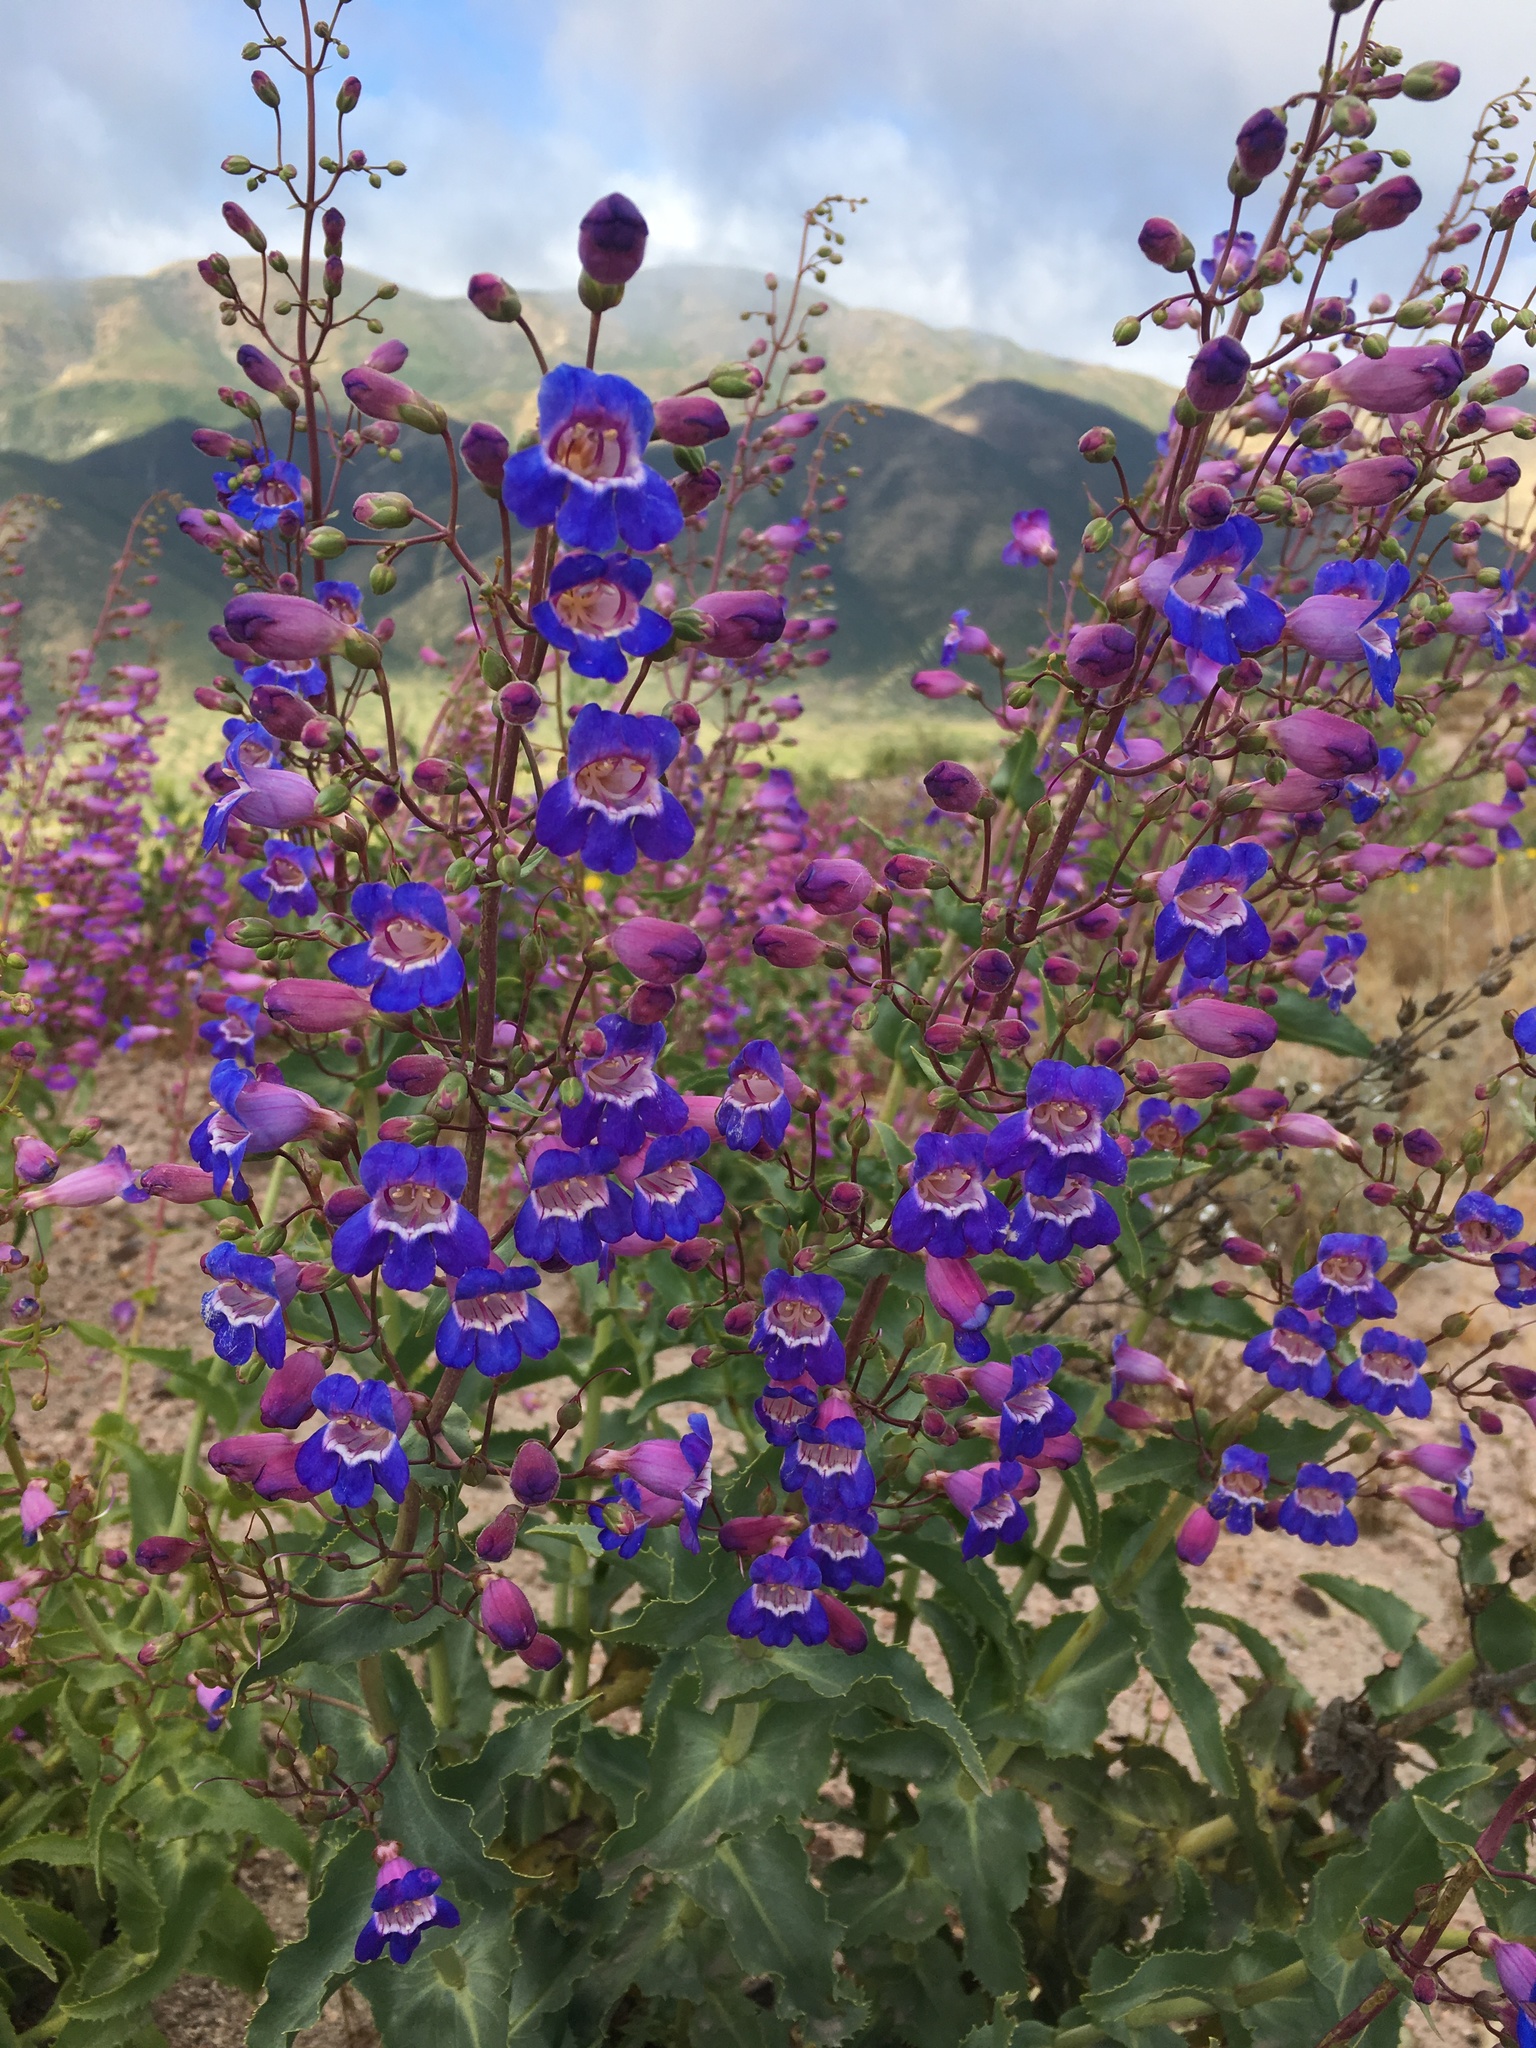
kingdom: Plantae
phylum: Tracheophyta
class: Magnoliopsida
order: Lamiales
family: Plantaginaceae
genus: Penstemon
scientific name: Penstemon spectabilis
